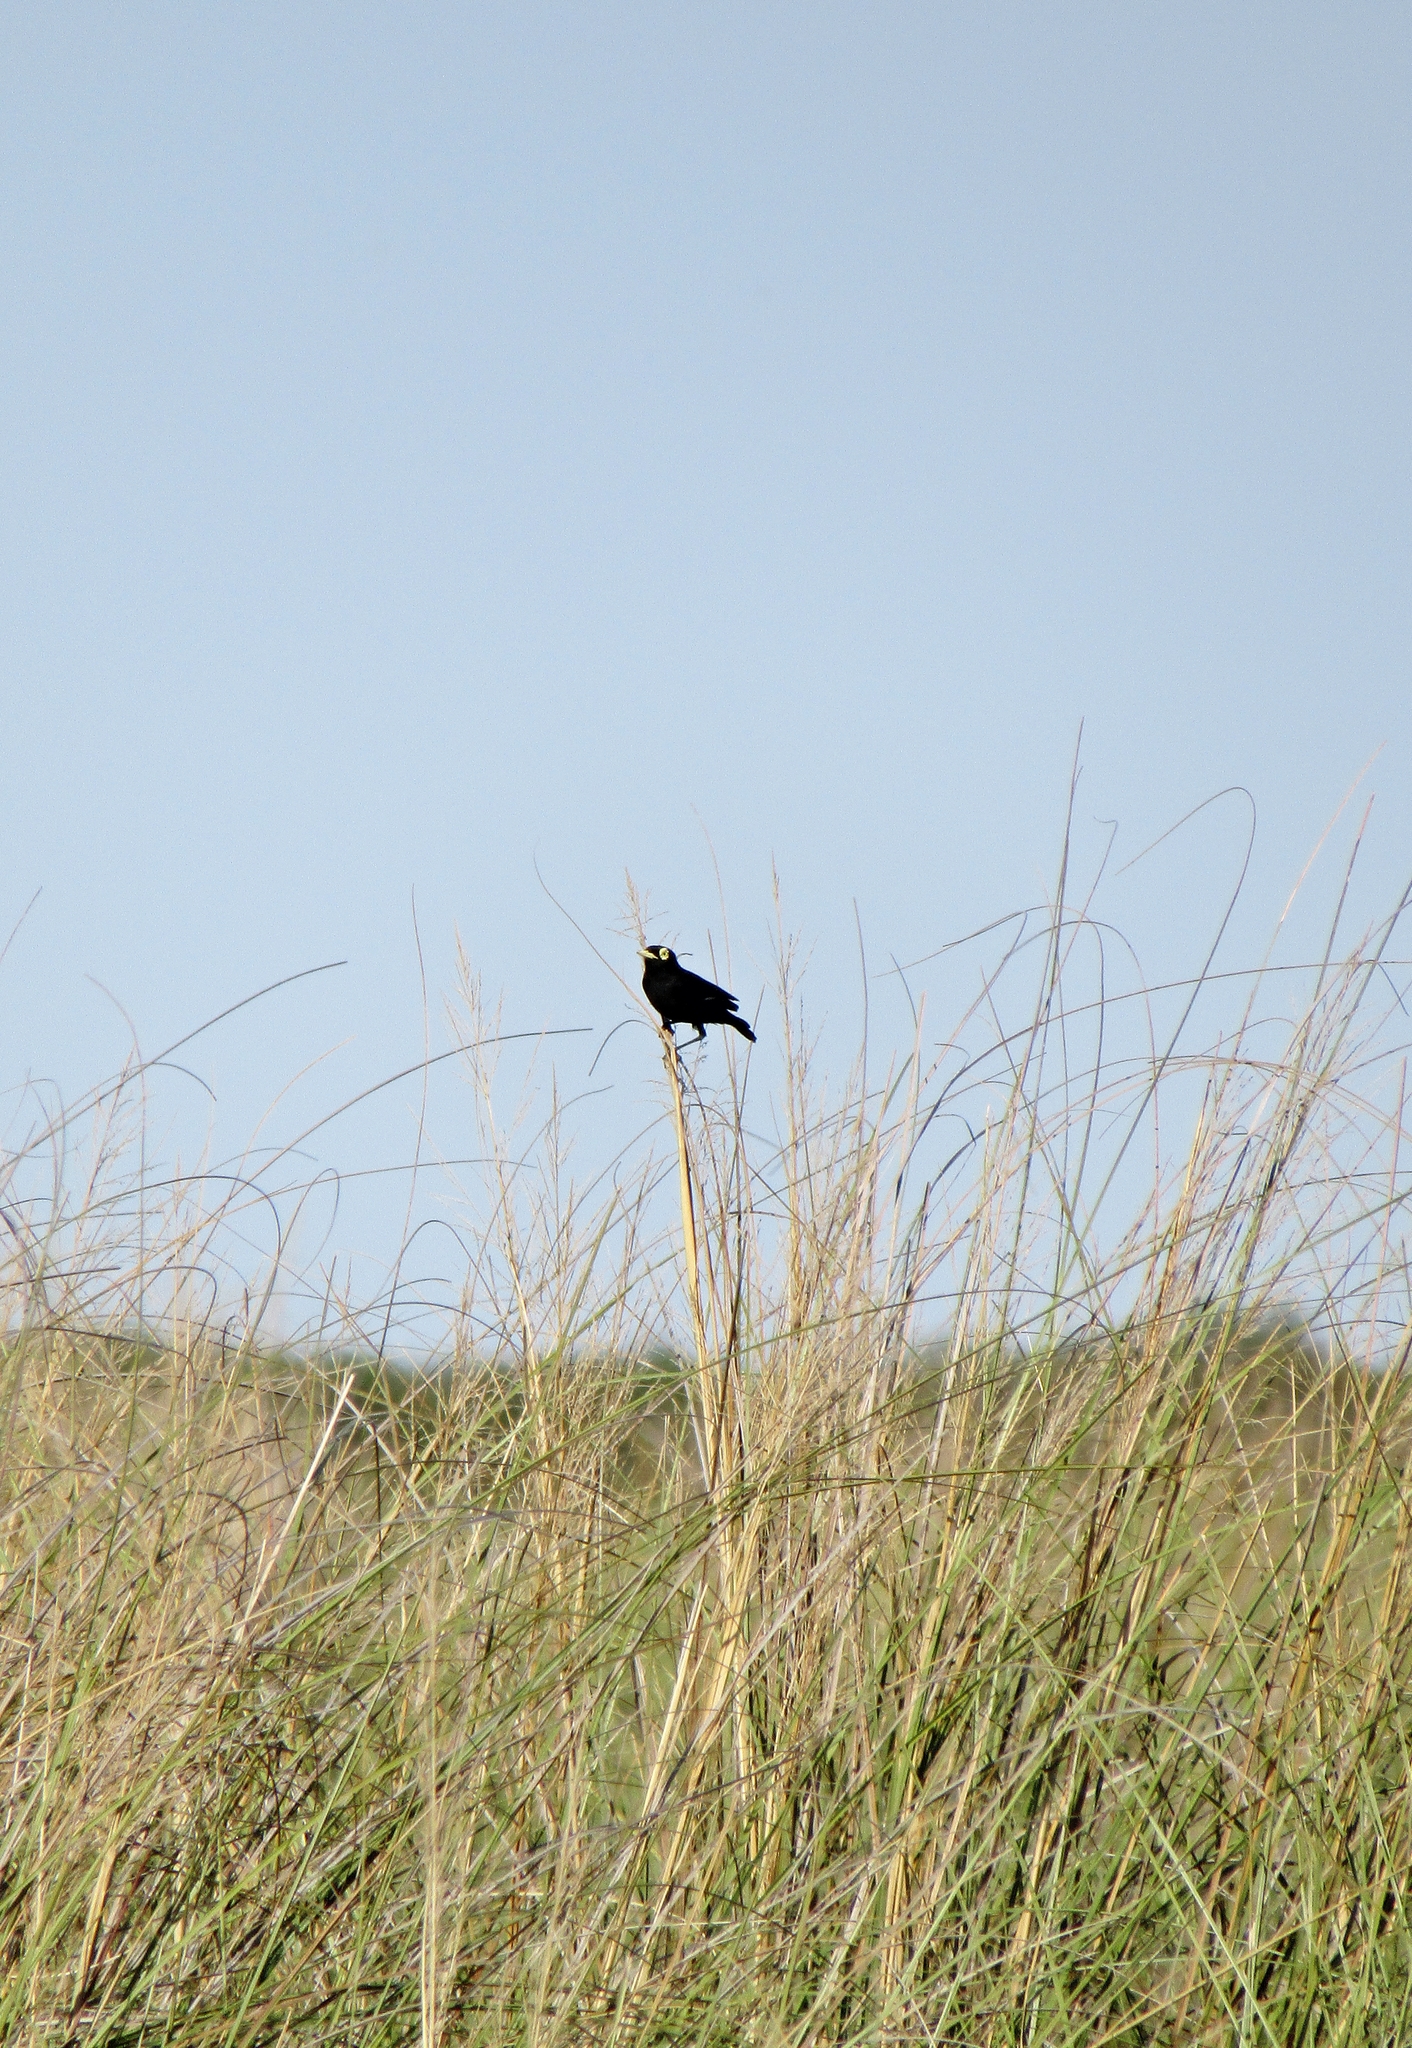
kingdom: Animalia
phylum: Chordata
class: Aves
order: Passeriformes
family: Tyrannidae
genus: Hymenops
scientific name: Hymenops perspicillatus
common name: Spectacled tyrant
